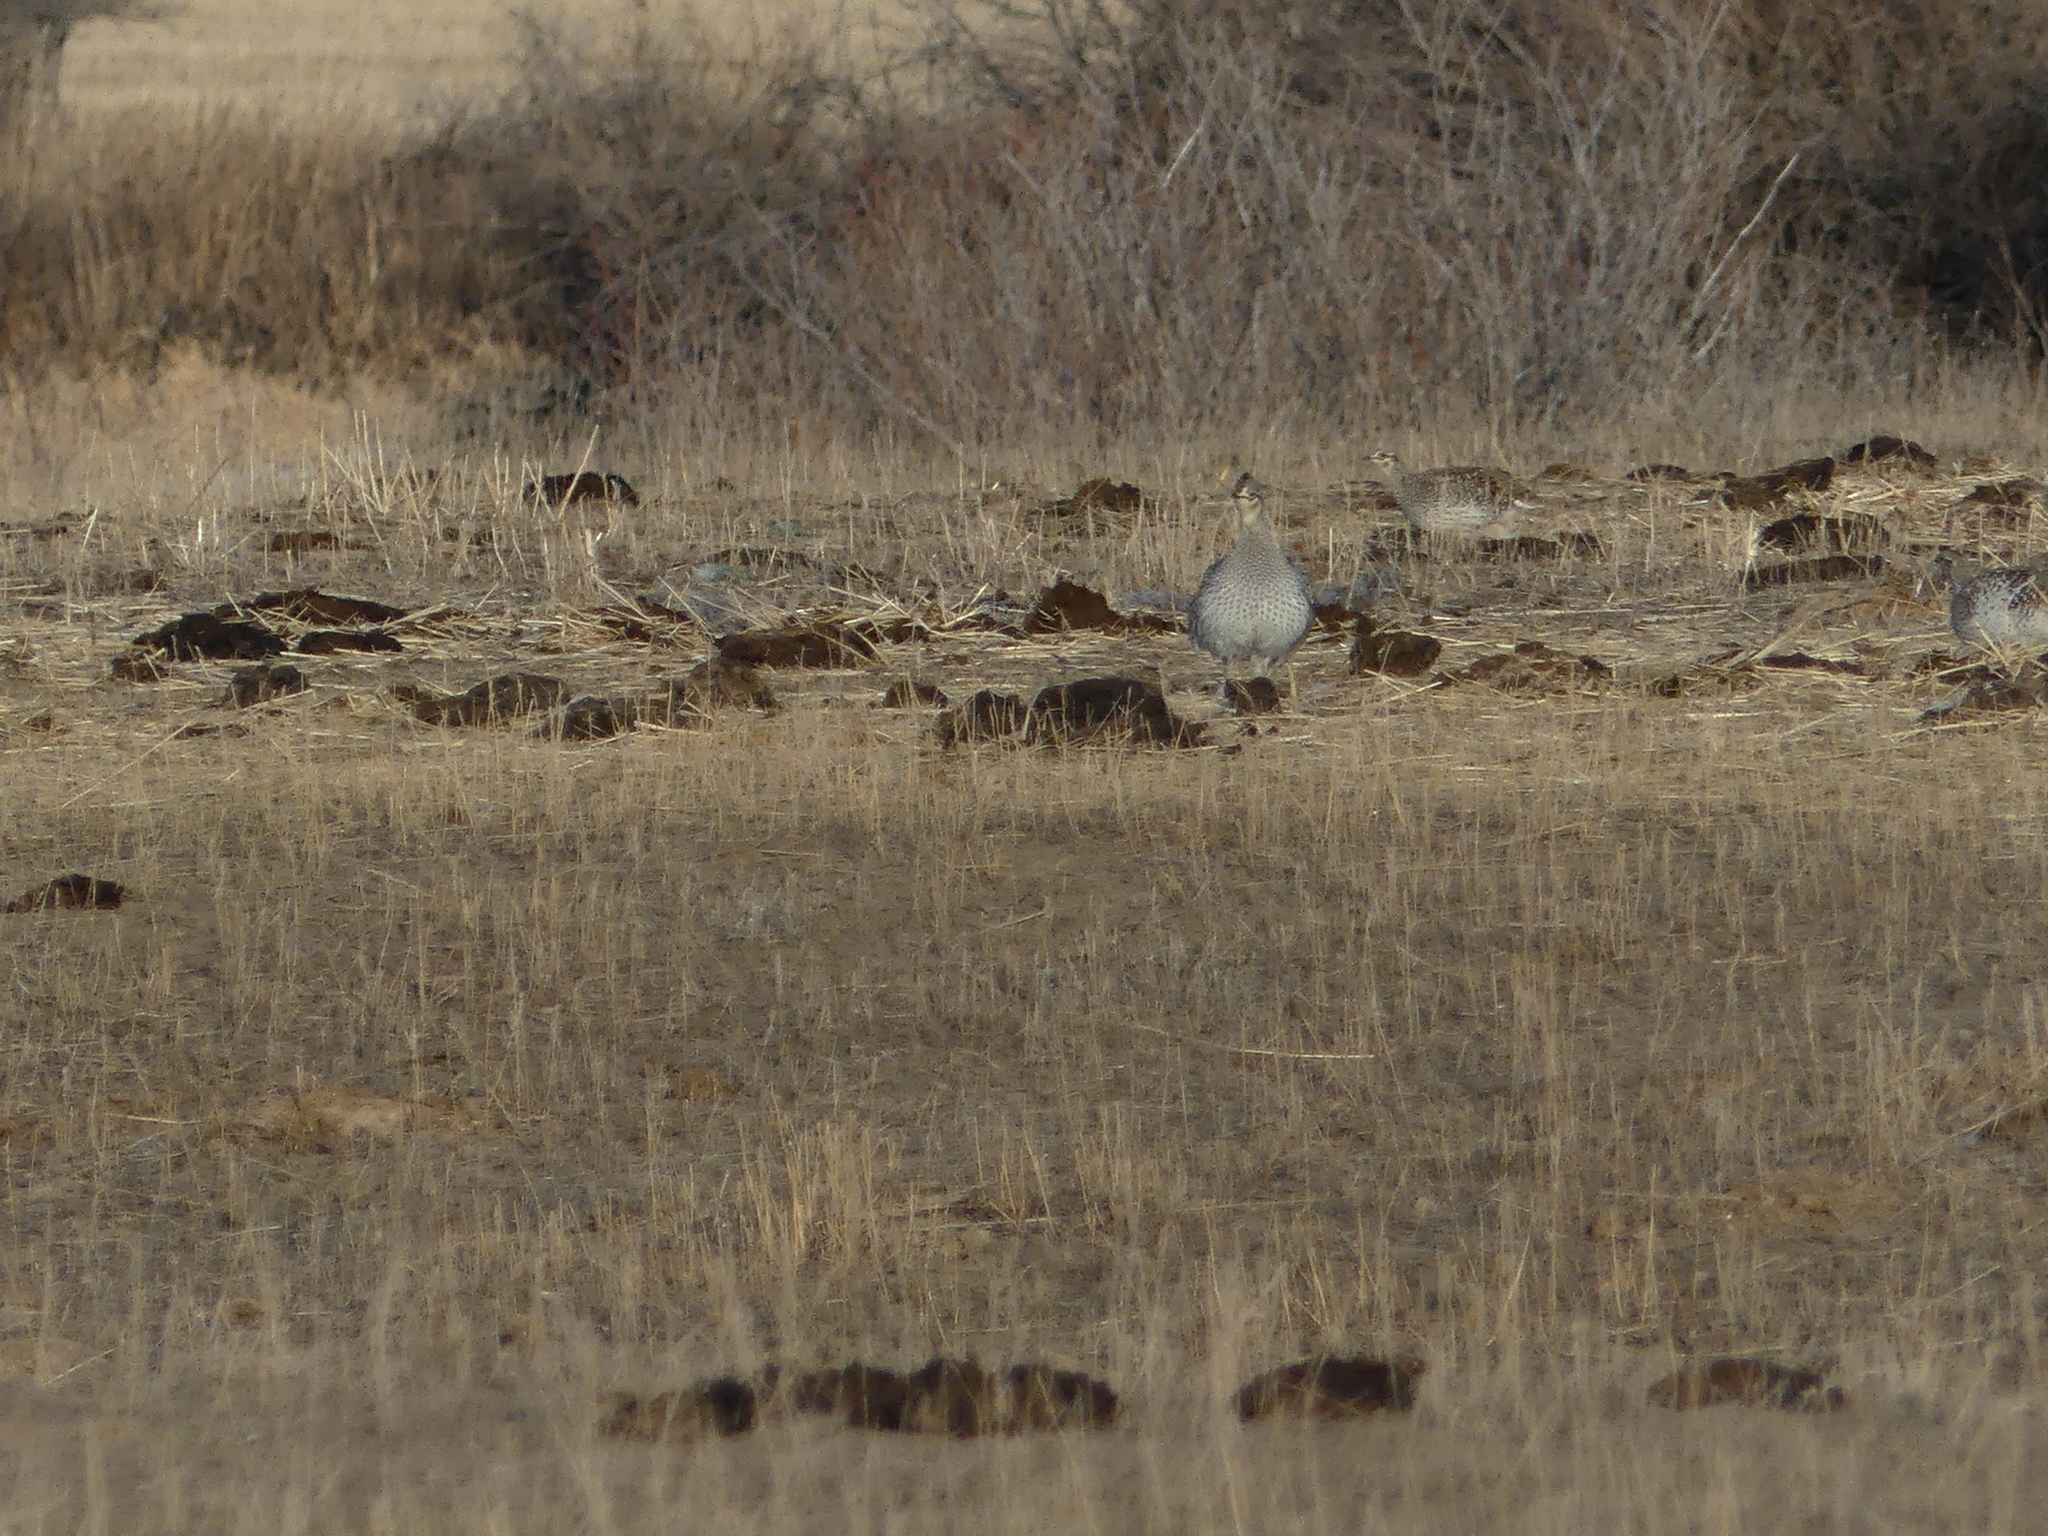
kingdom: Animalia
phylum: Chordata
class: Aves
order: Galliformes
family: Phasianidae
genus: Tympanuchus
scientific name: Tympanuchus phasianellus
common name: Sharp-tailed grouse
